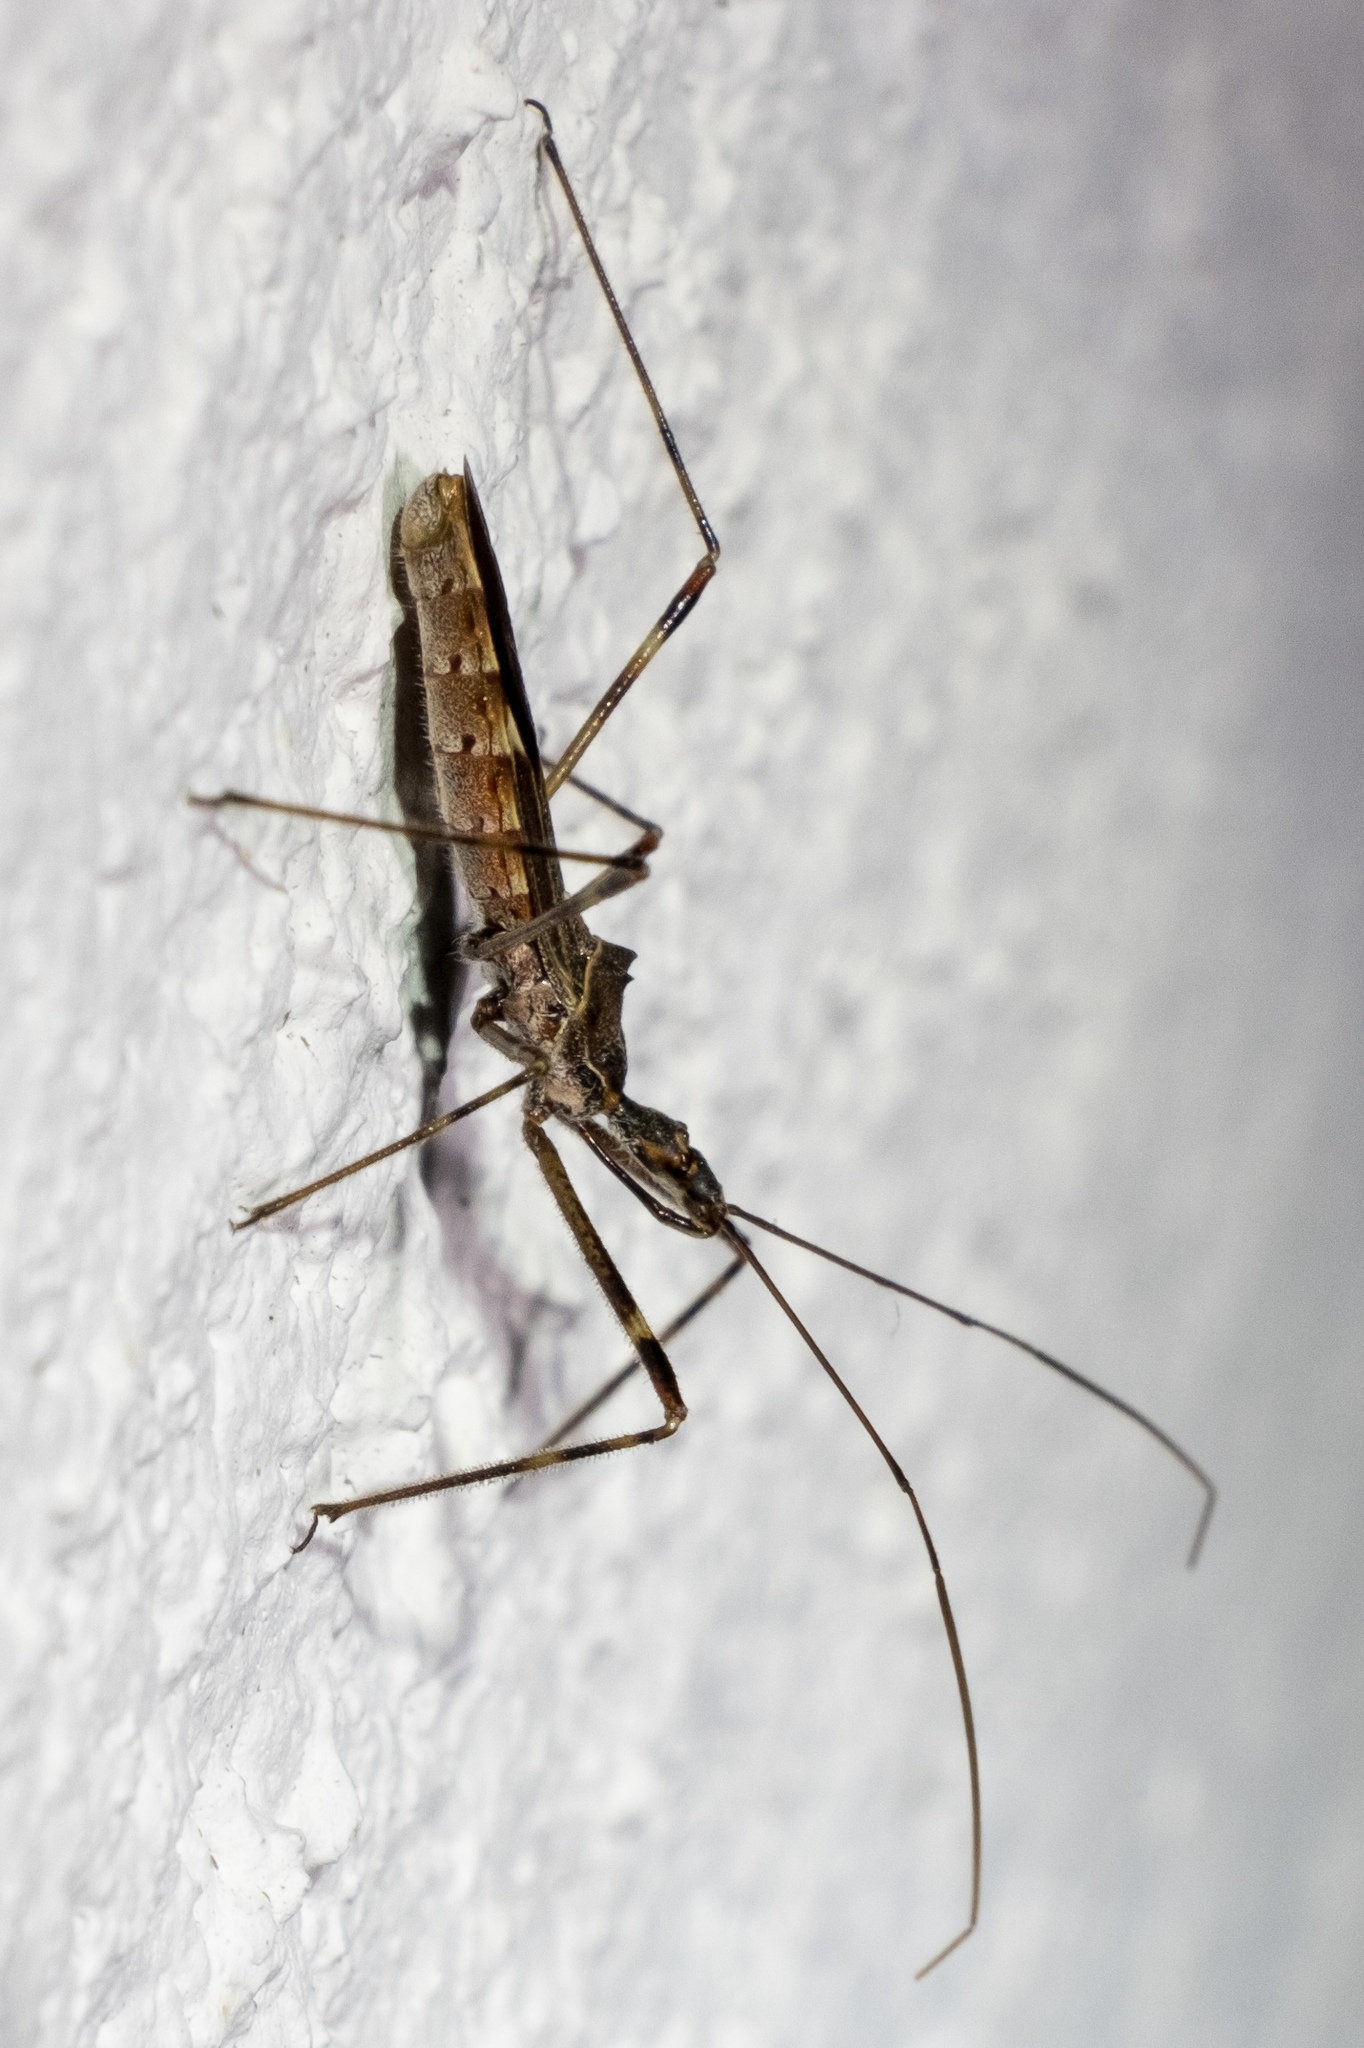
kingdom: Animalia
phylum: Arthropoda
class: Insecta
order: Hemiptera
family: Reduviidae
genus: Zelus
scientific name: Zelus tetracanthus
